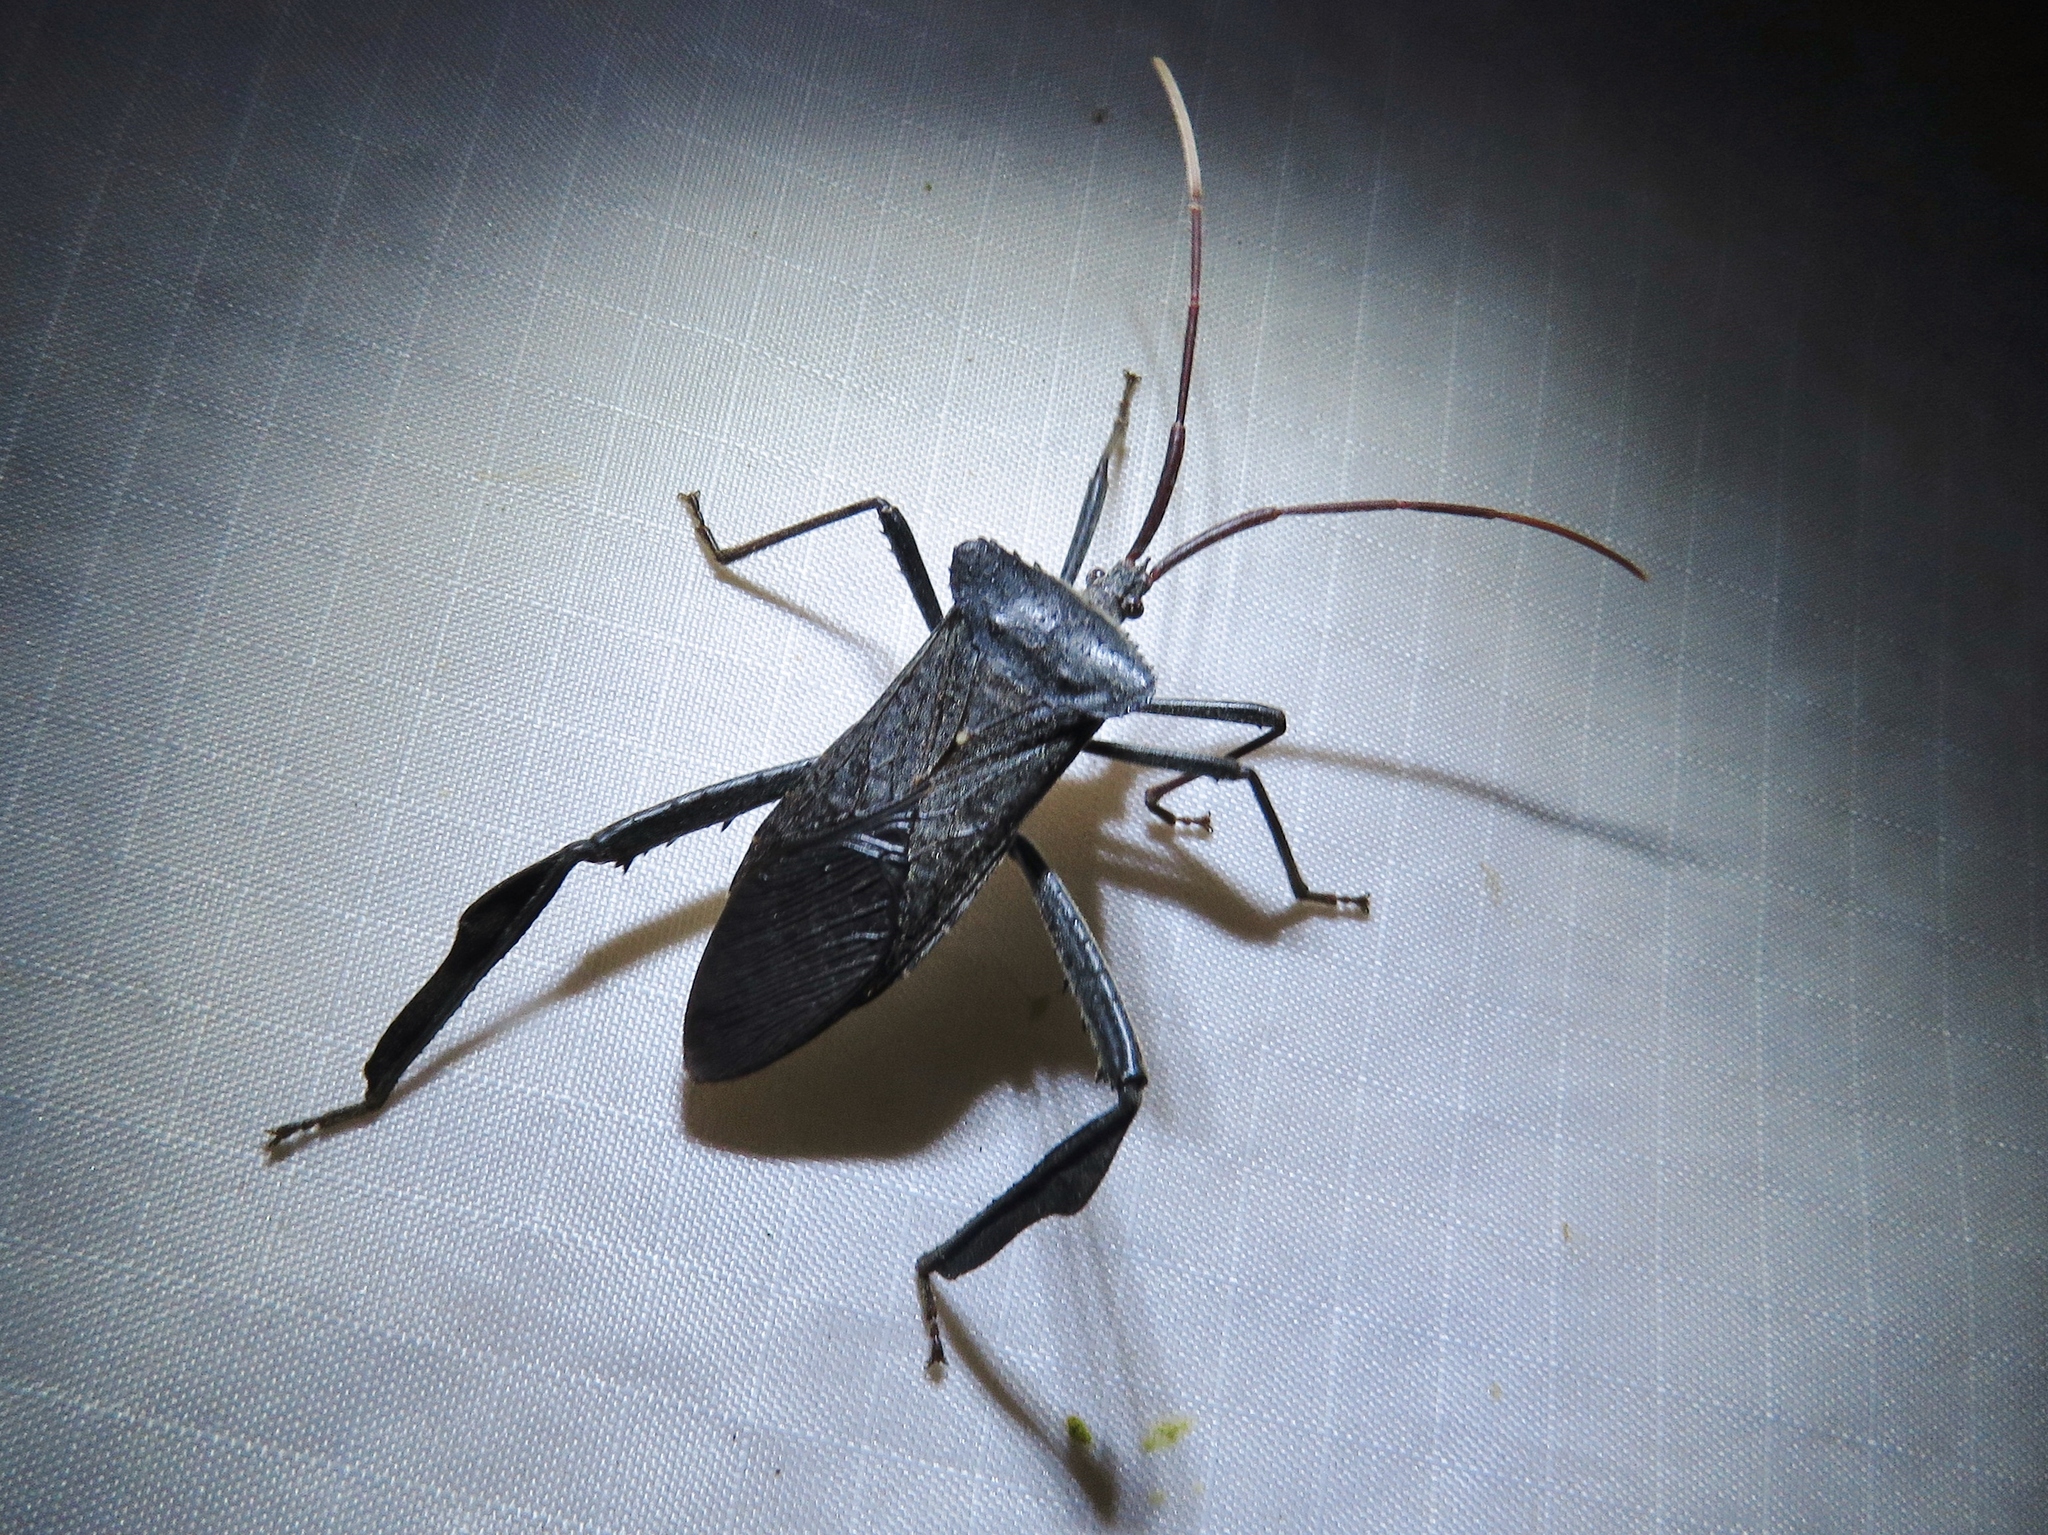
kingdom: Animalia
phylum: Arthropoda
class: Insecta
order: Hemiptera
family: Coreidae
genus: Acanthocephala
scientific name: Acanthocephala declivis
